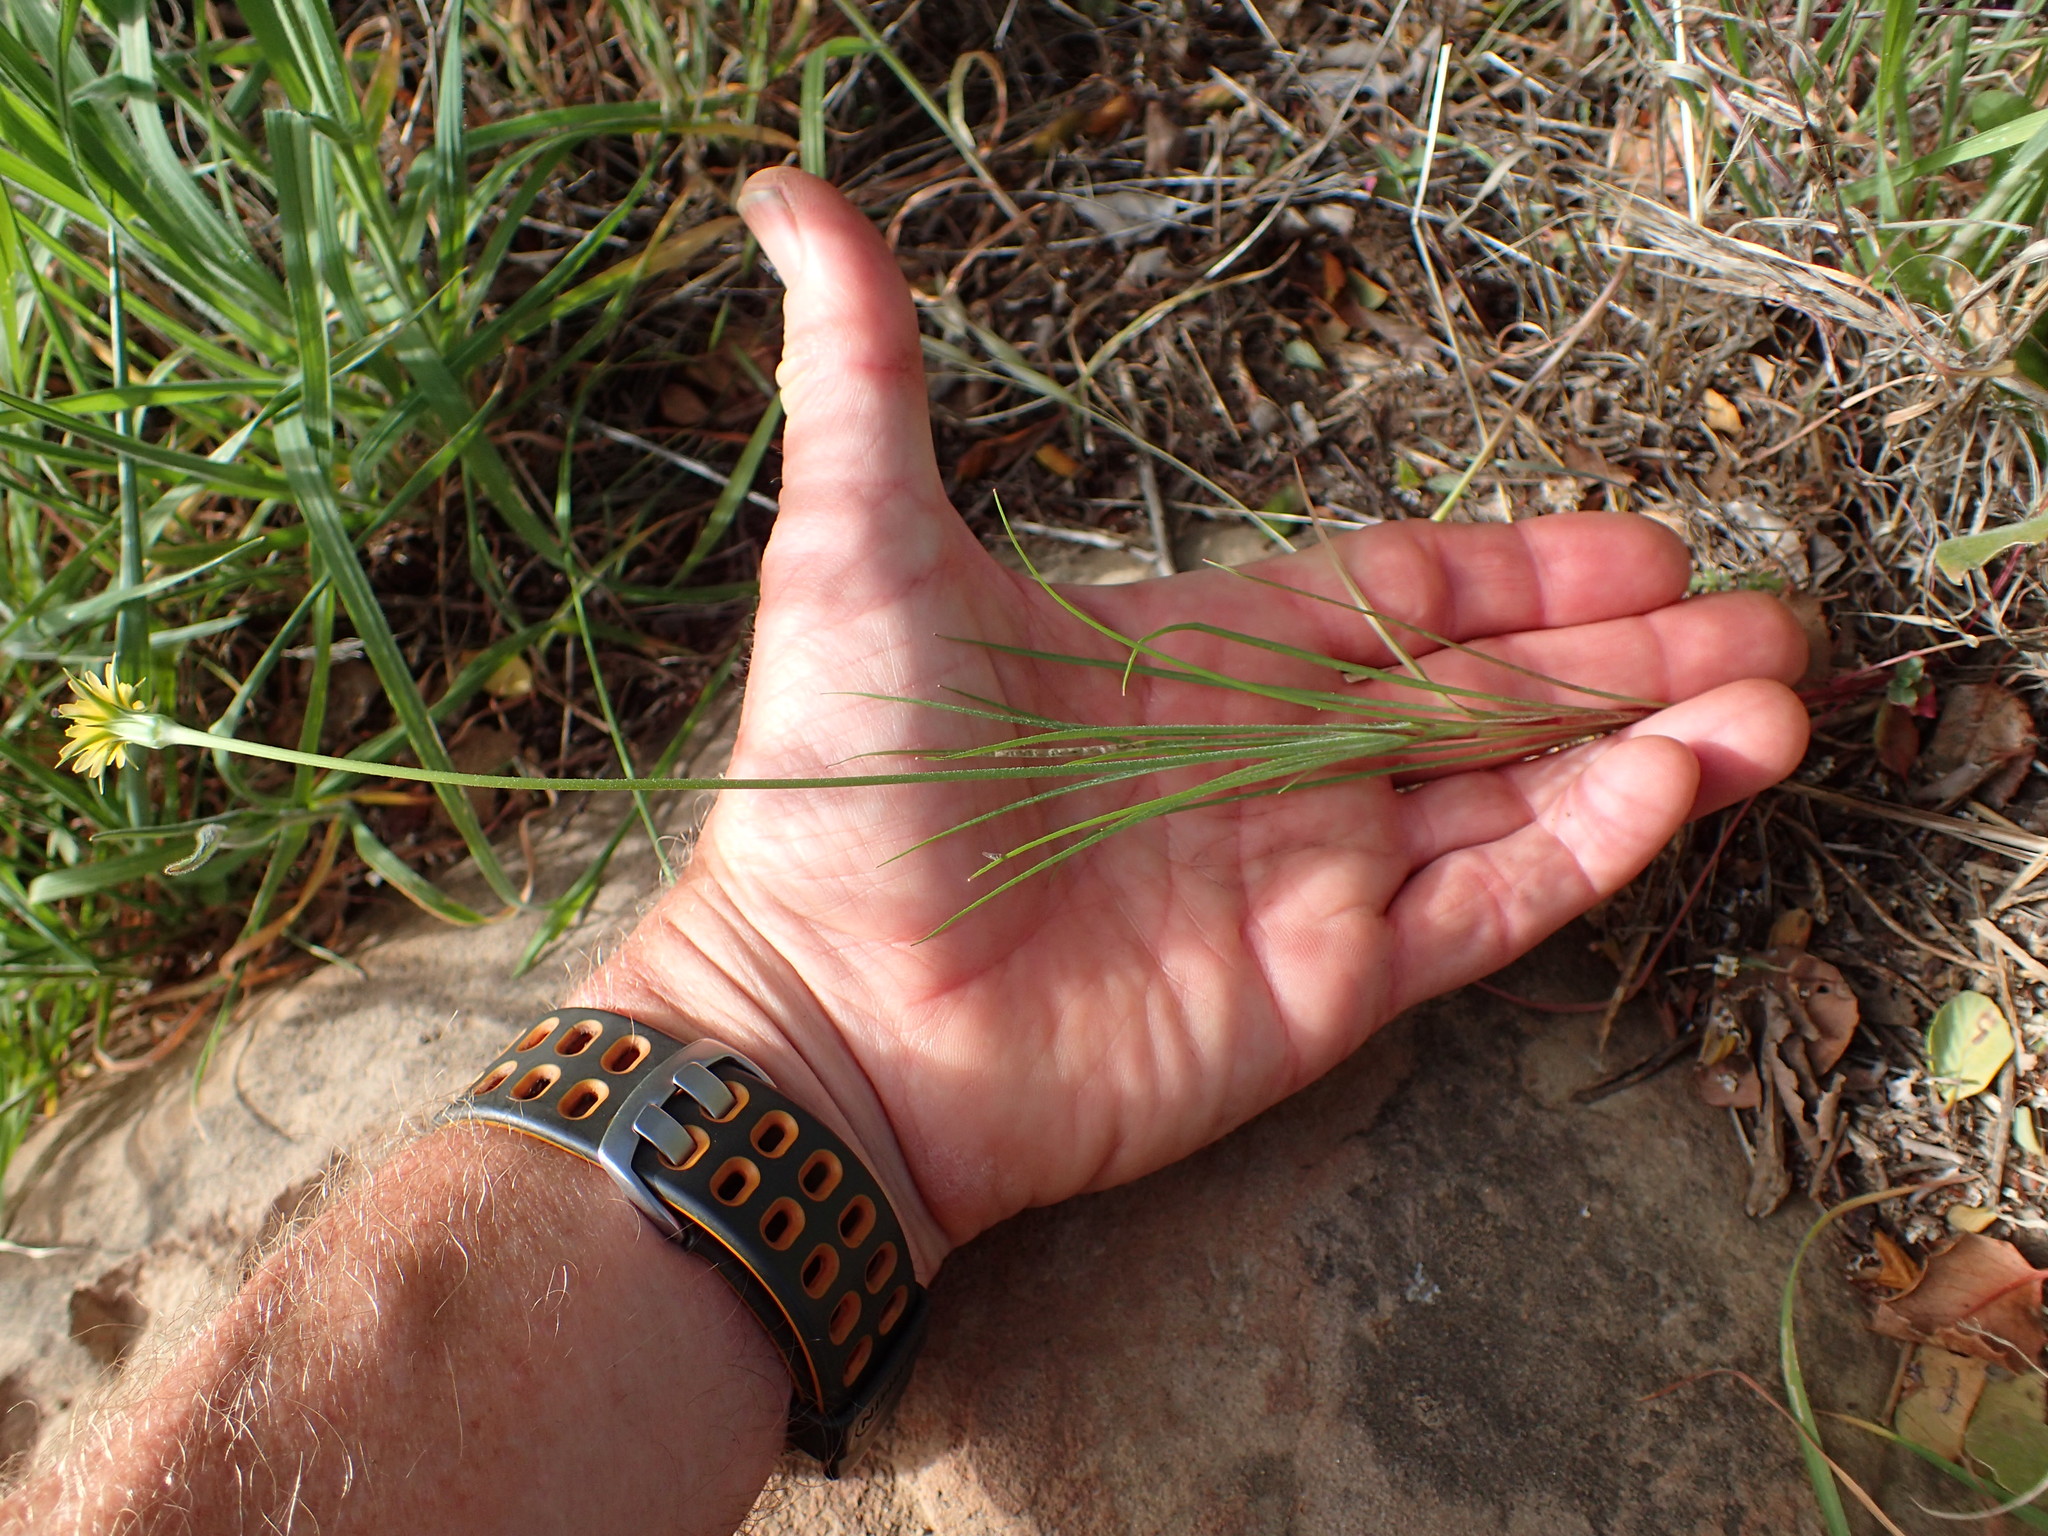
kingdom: Plantae
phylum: Tracheophyta
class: Magnoliopsida
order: Asterales
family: Asteraceae
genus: Microseris
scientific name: Microseris lindleyi
